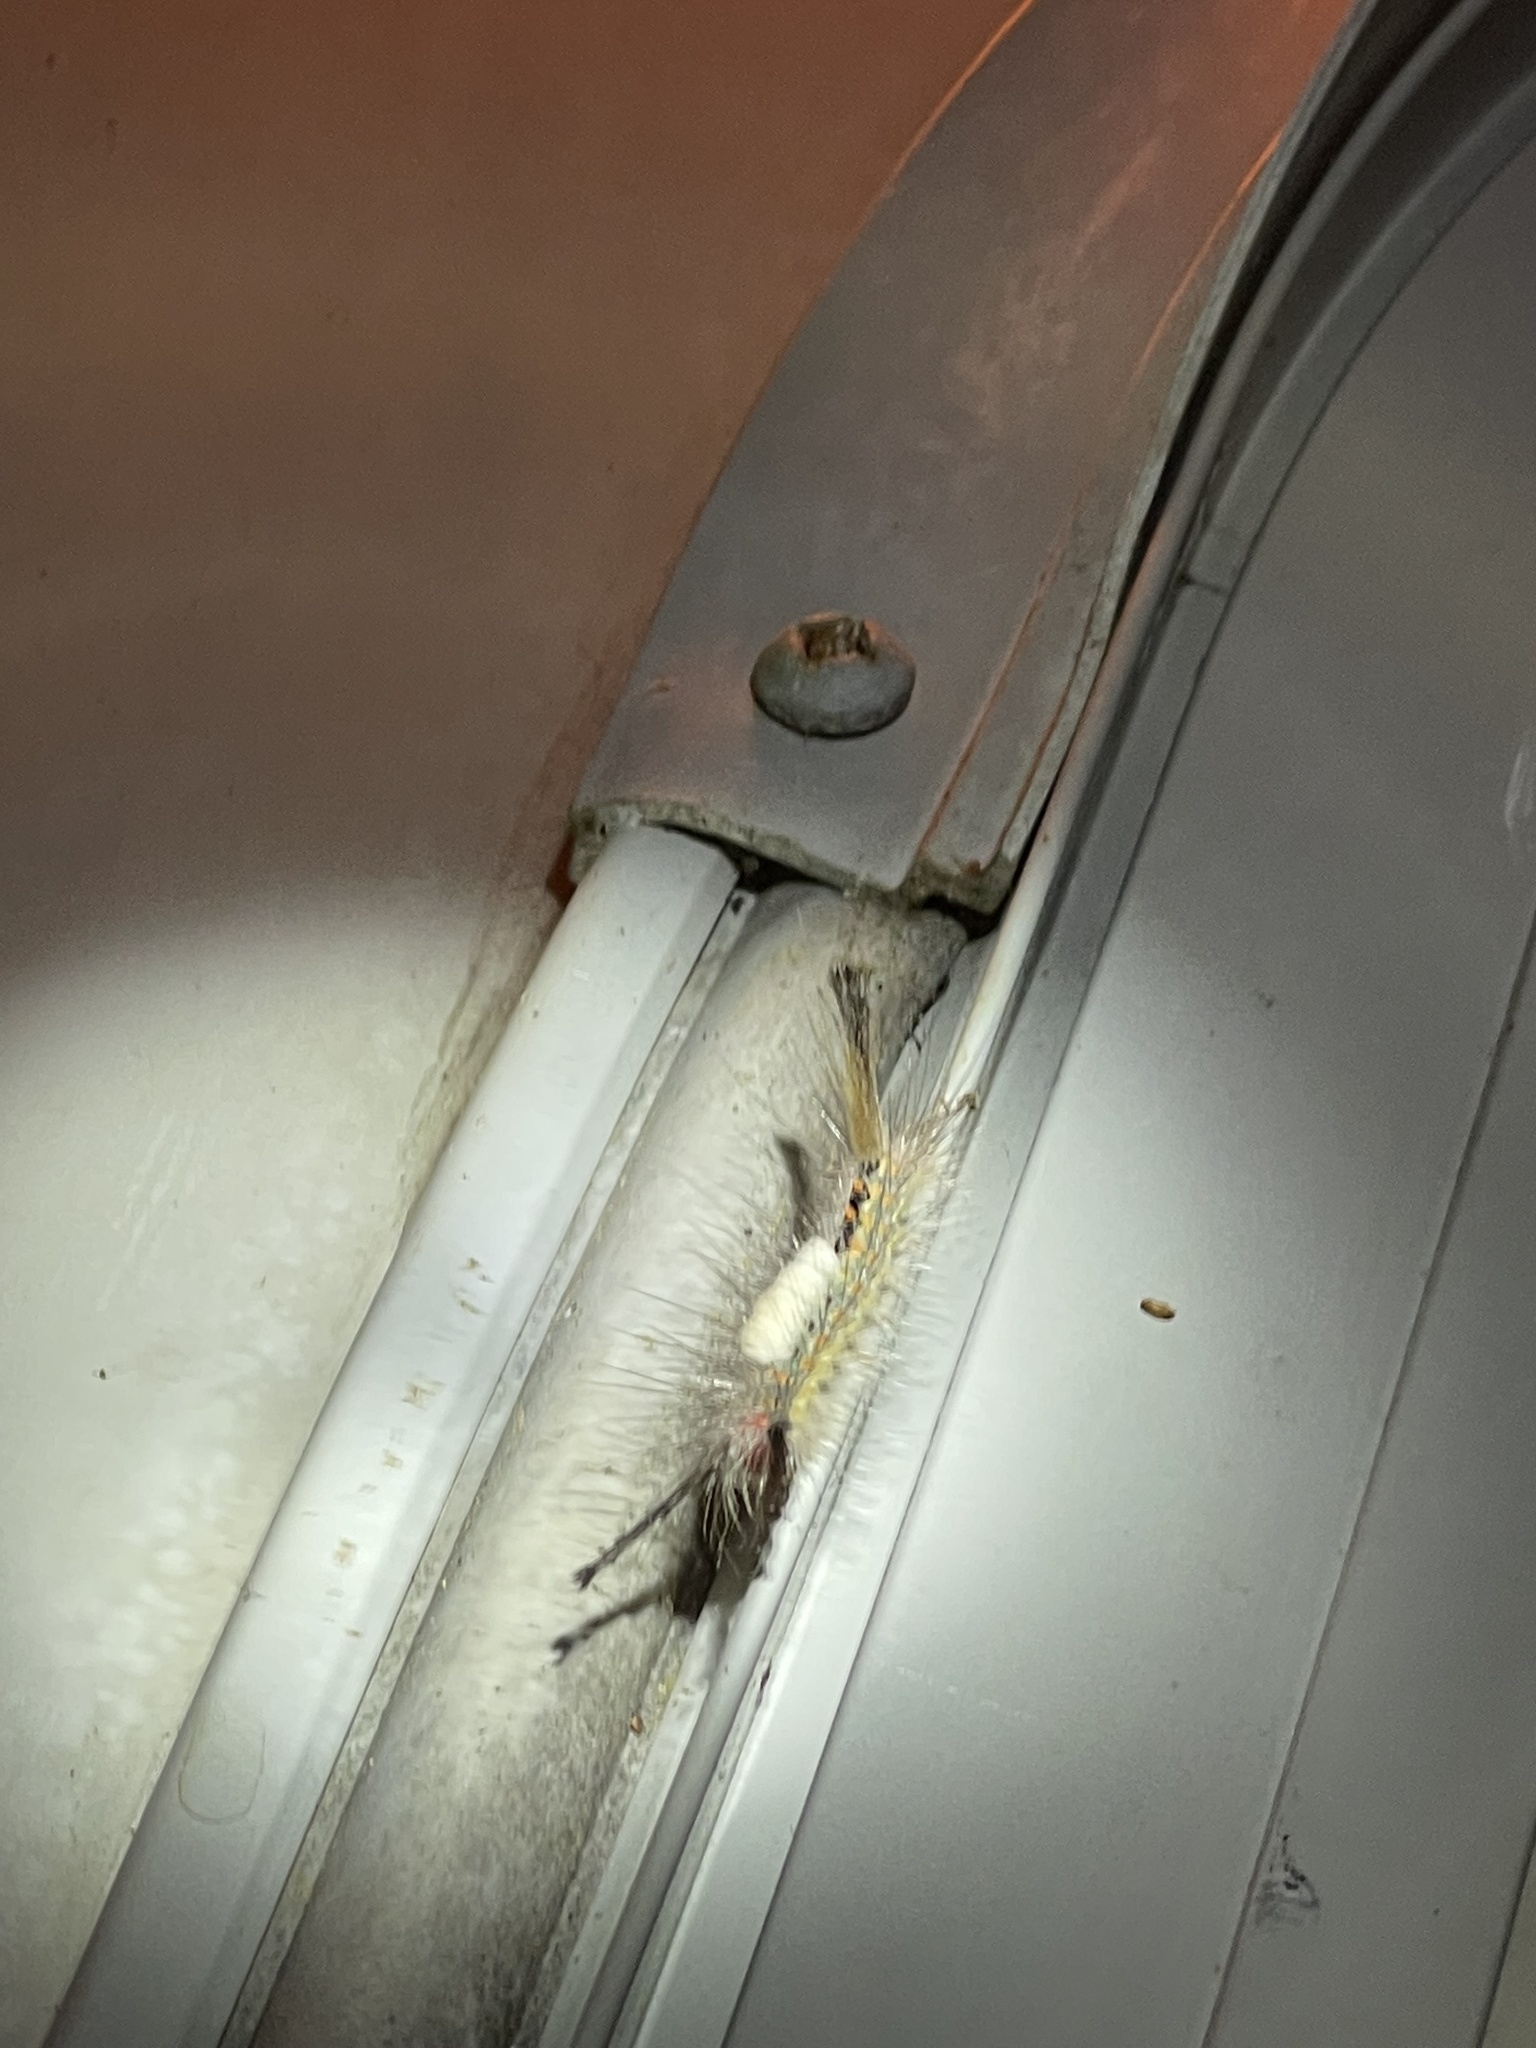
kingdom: Animalia
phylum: Arthropoda
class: Insecta
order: Lepidoptera
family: Erebidae
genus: Orgyia
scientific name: Orgyia leucostigma
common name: White-marked tussock moth
